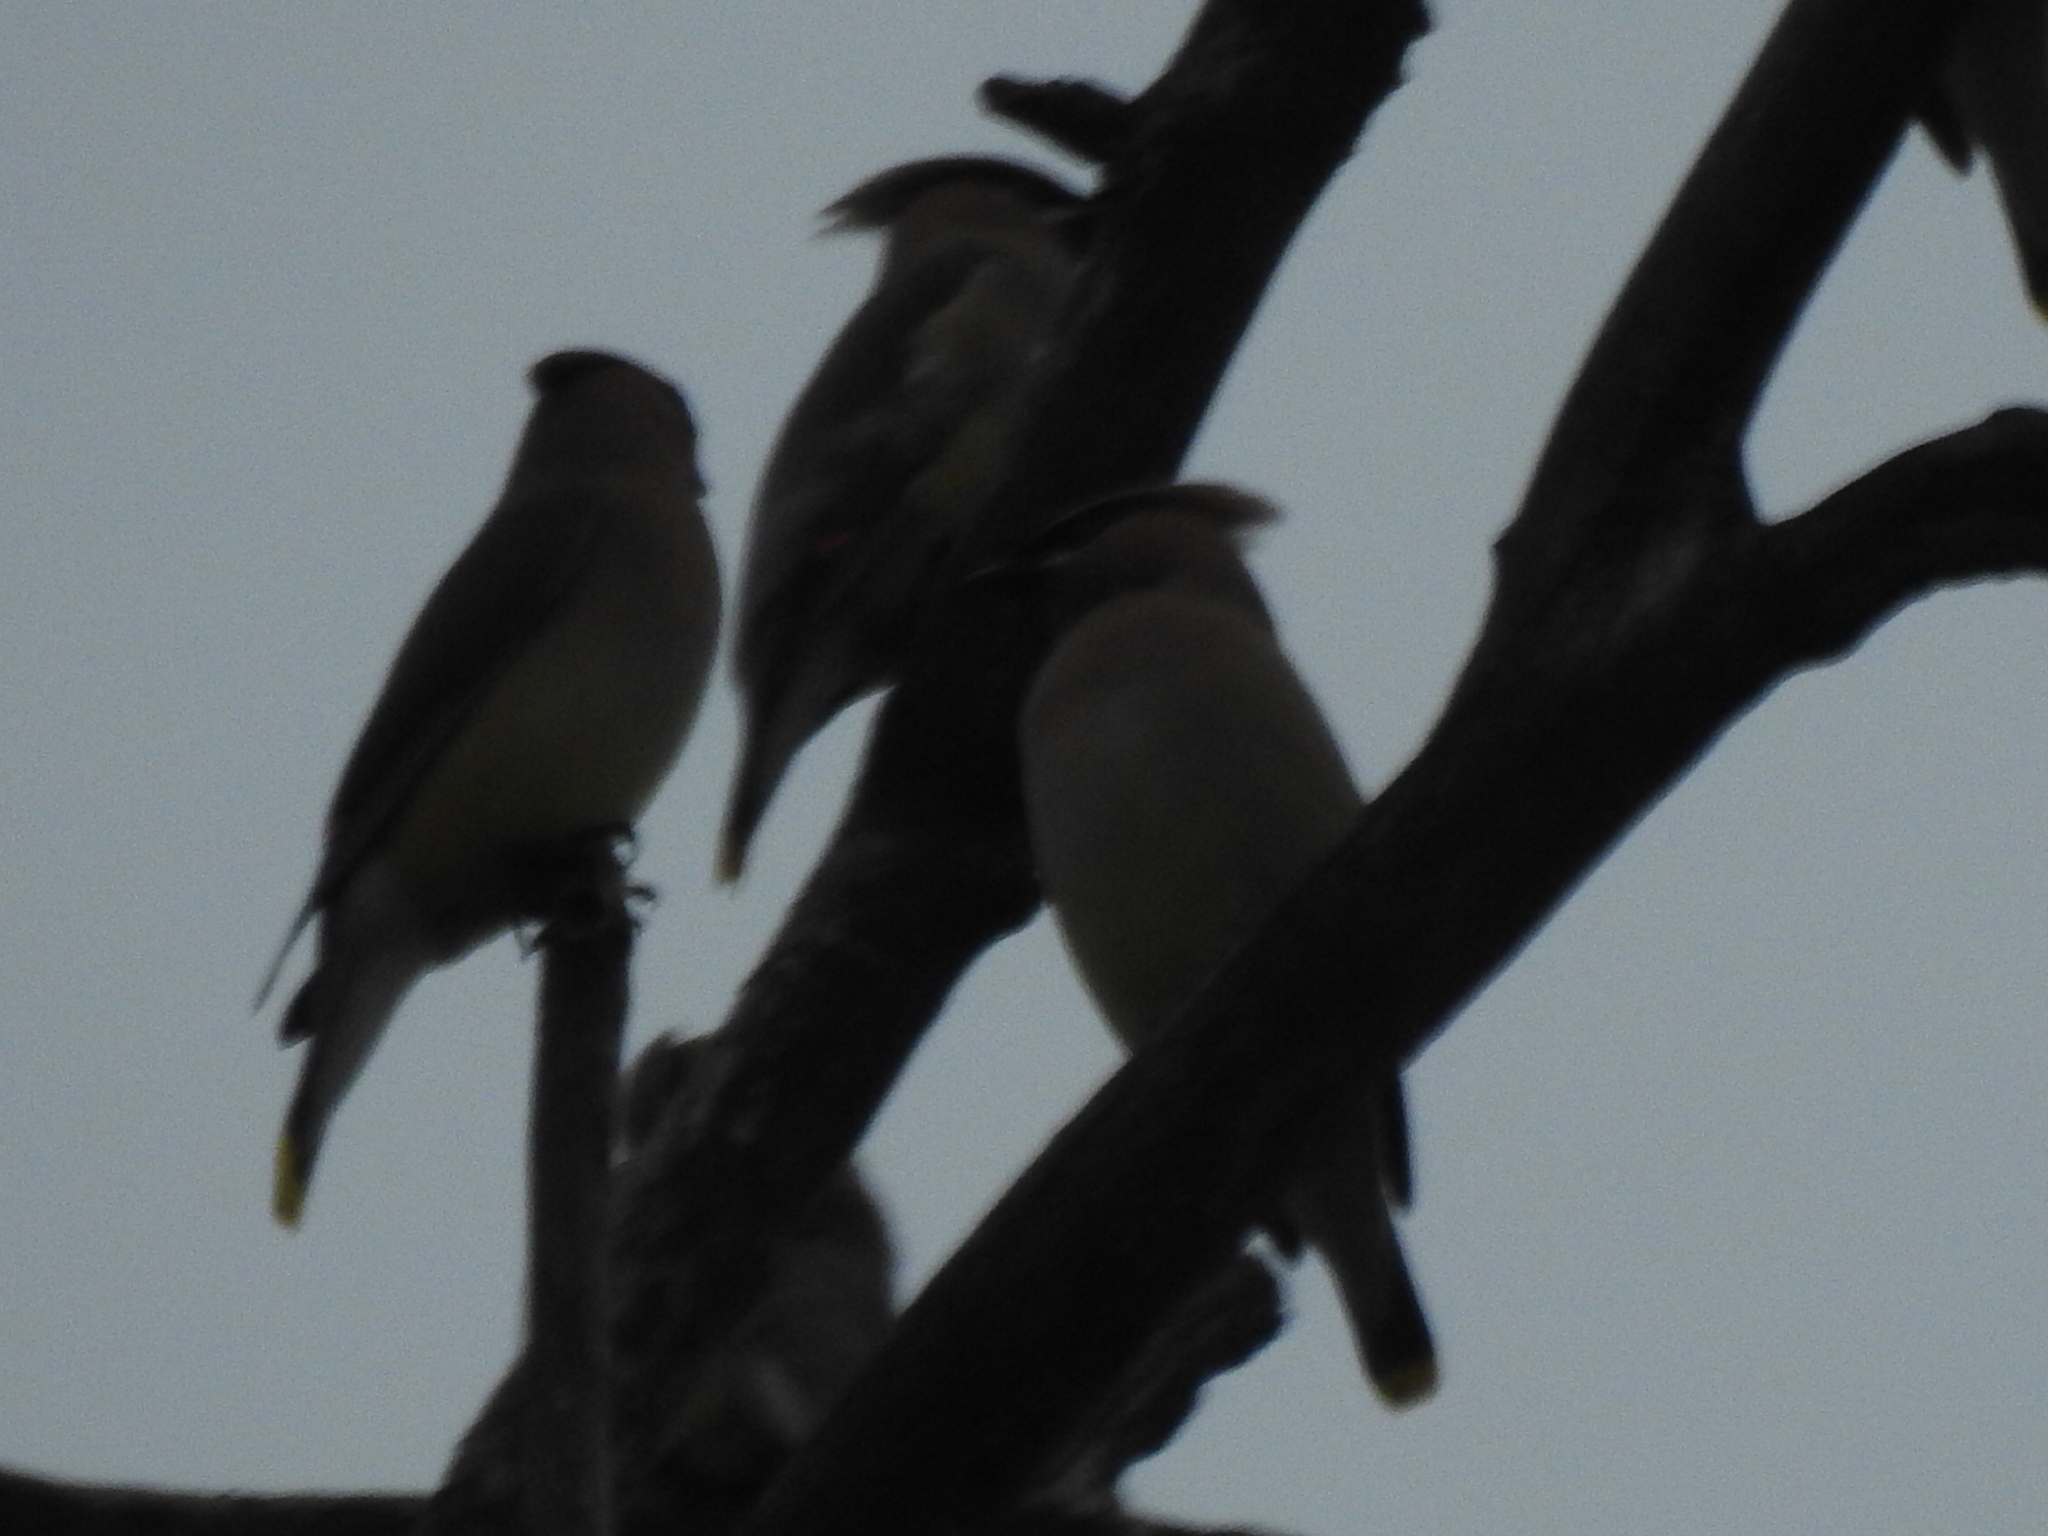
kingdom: Animalia
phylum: Chordata
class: Aves
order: Passeriformes
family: Bombycillidae
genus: Bombycilla
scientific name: Bombycilla cedrorum
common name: Cedar waxwing
